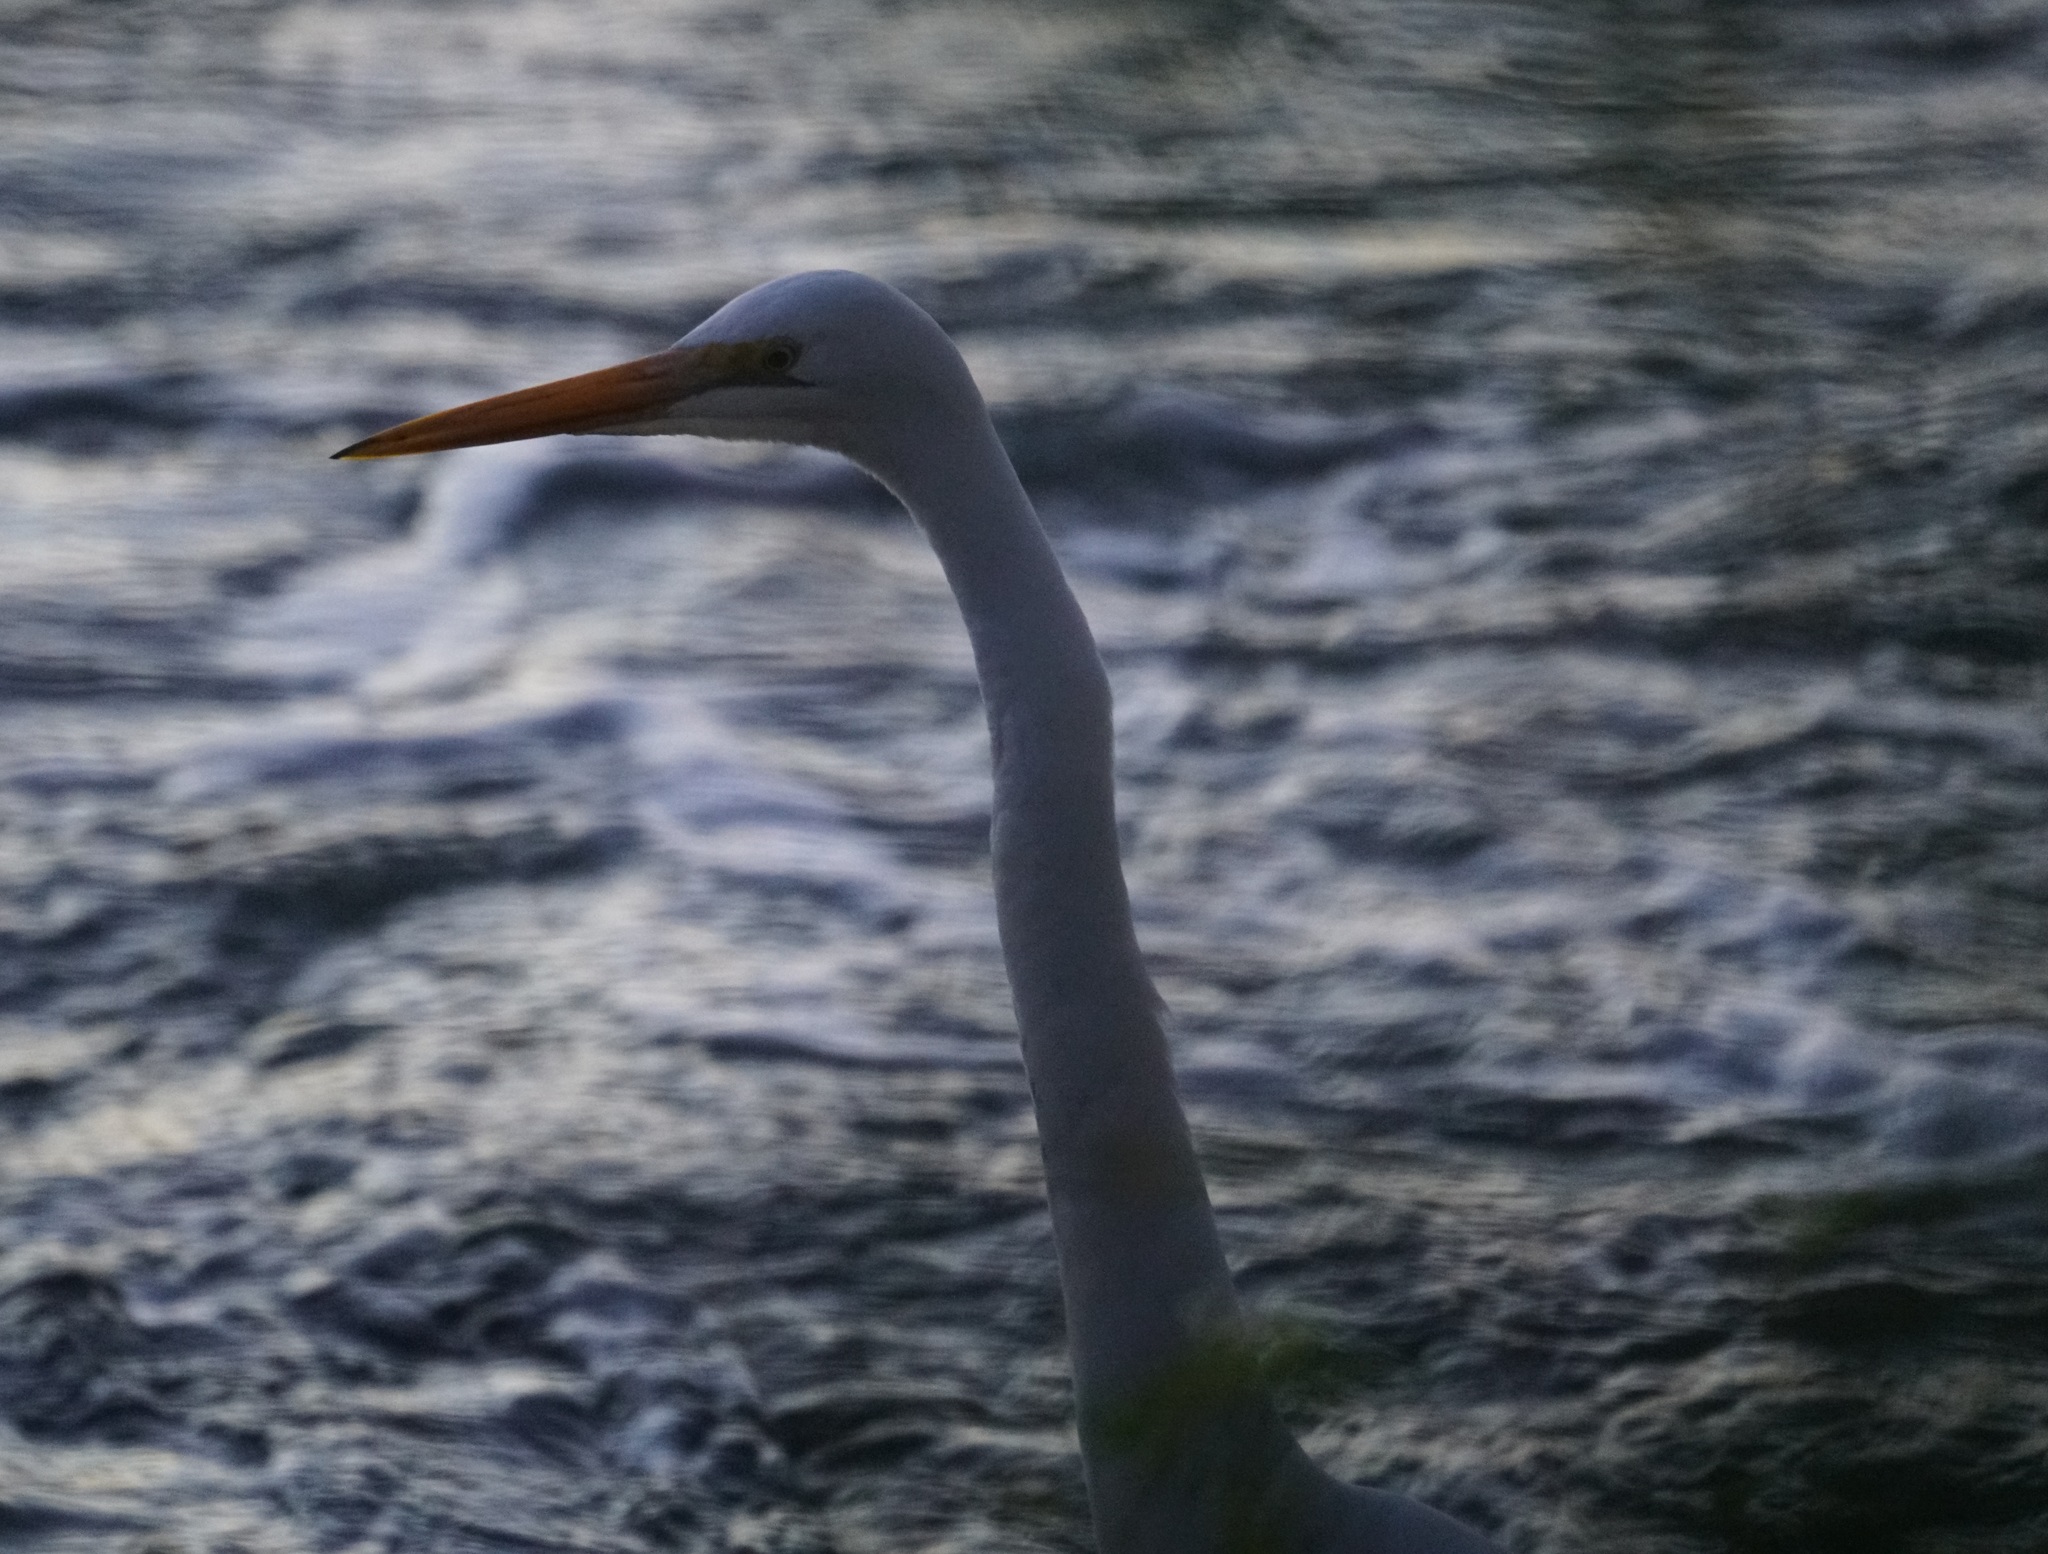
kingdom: Animalia
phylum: Chordata
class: Aves
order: Pelecaniformes
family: Ardeidae
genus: Ardea
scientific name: Ardea modesta
